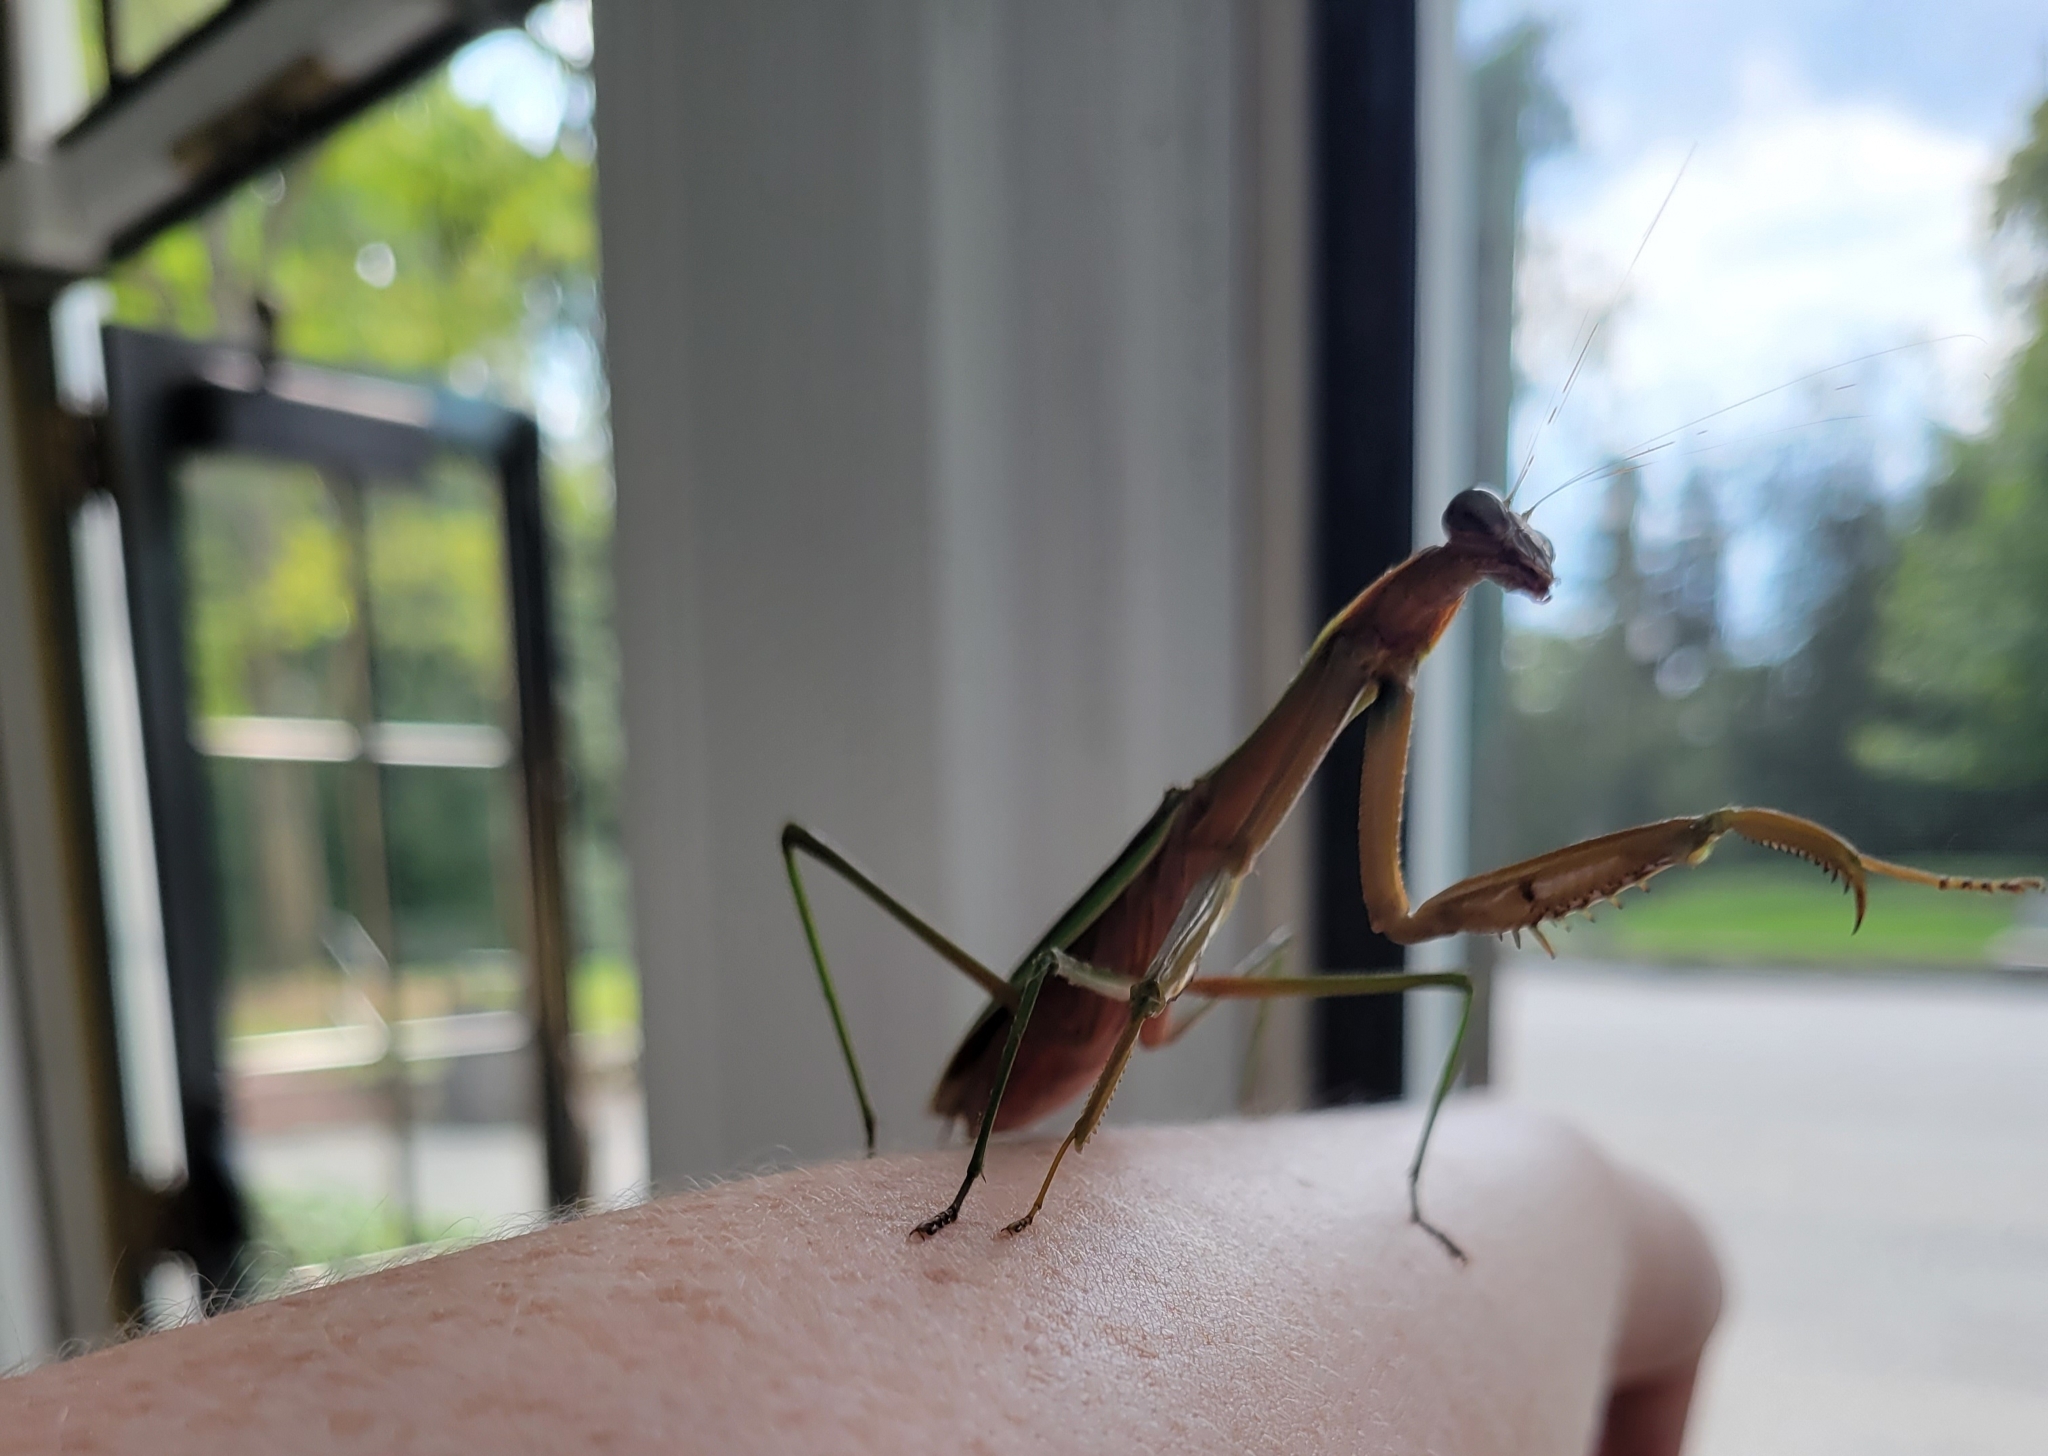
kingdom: Animalia
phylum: Arthropoda
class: Insecta
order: Mantodea
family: Mantidae
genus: Tenodera
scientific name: Tenodera sinensis
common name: Chinese mantis
